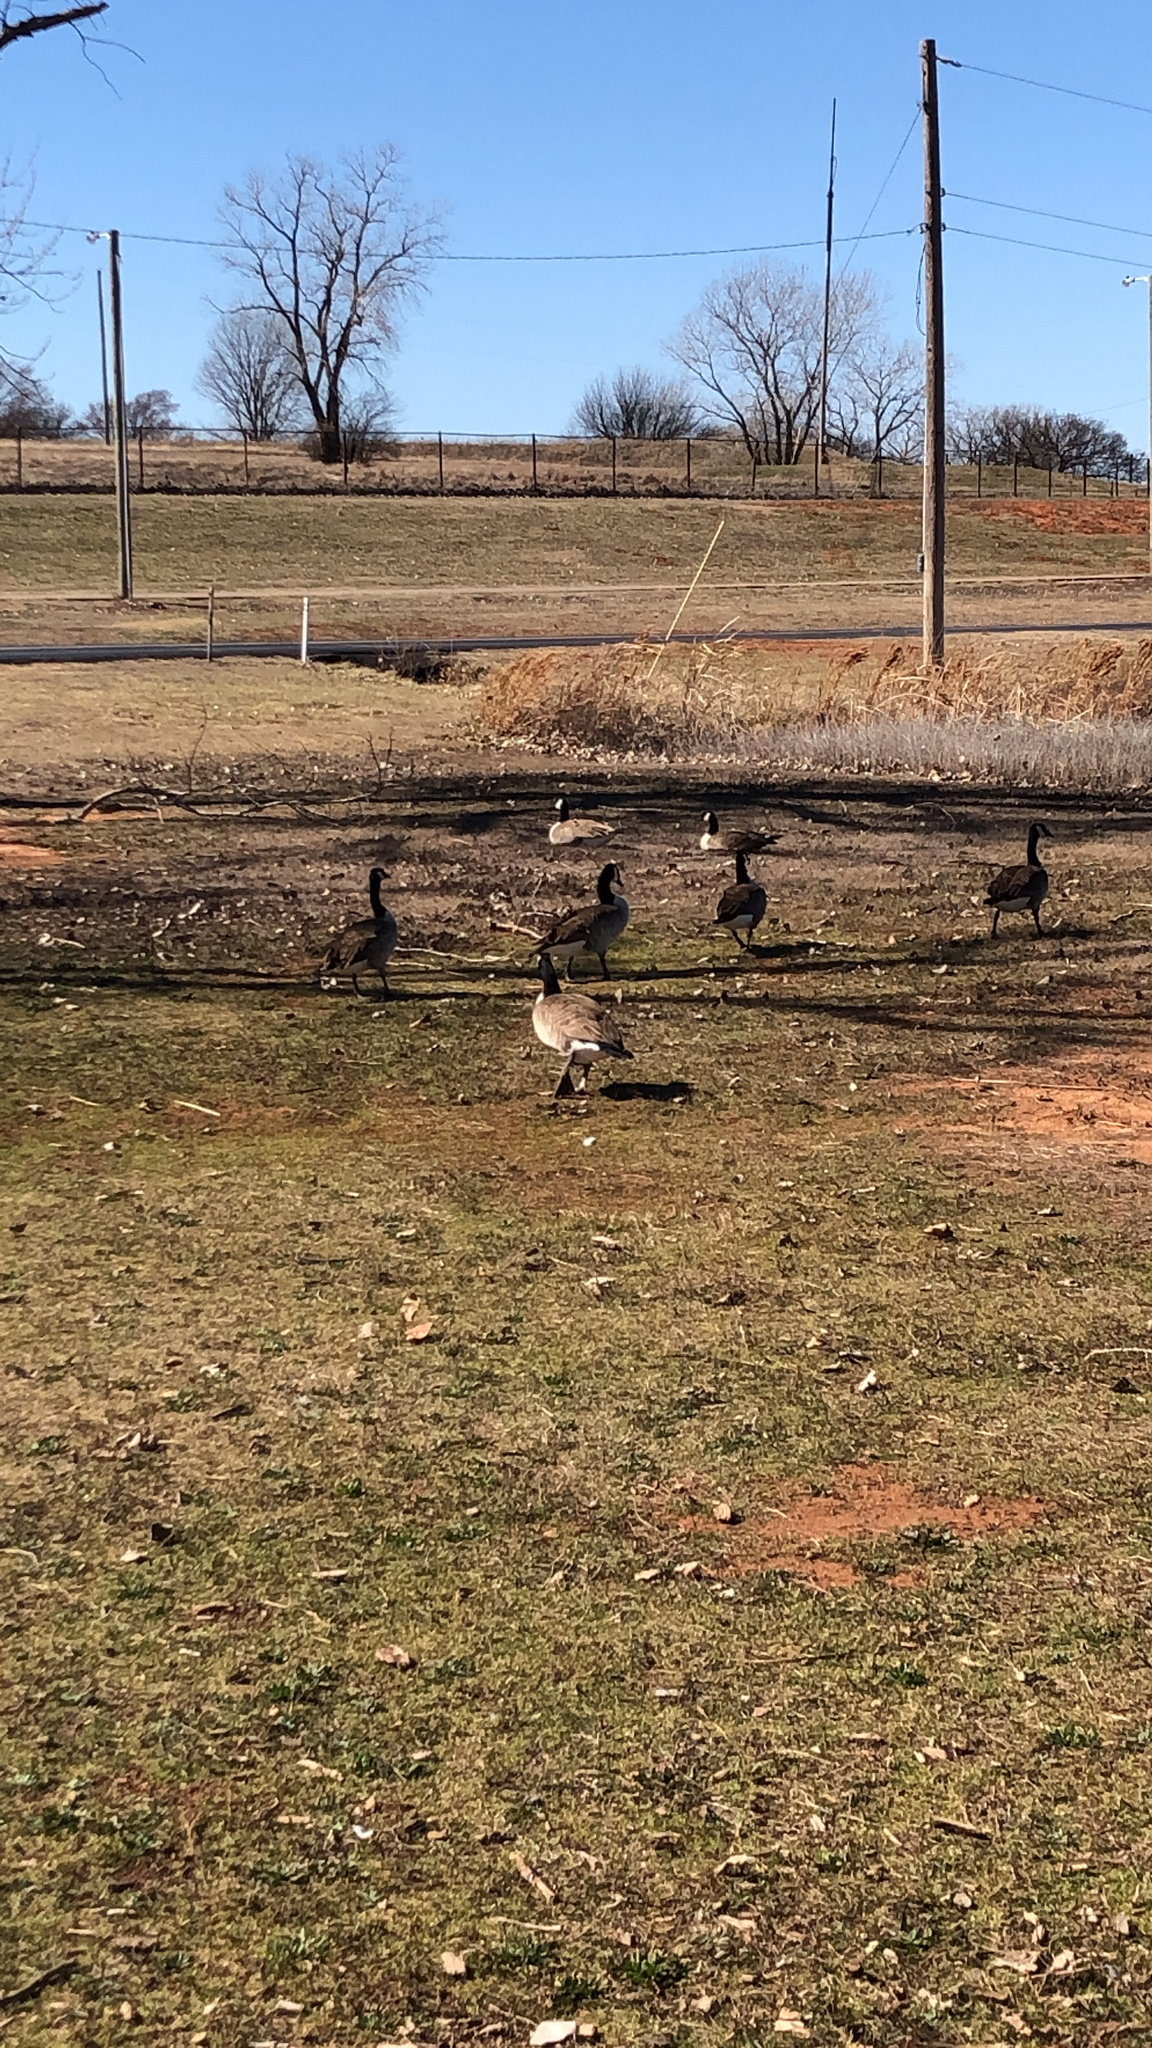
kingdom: Animalia
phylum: Chordata
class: Aves
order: Anseriformes
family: Anatidae
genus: Branta
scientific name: Branta canadensis
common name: Canada goose
